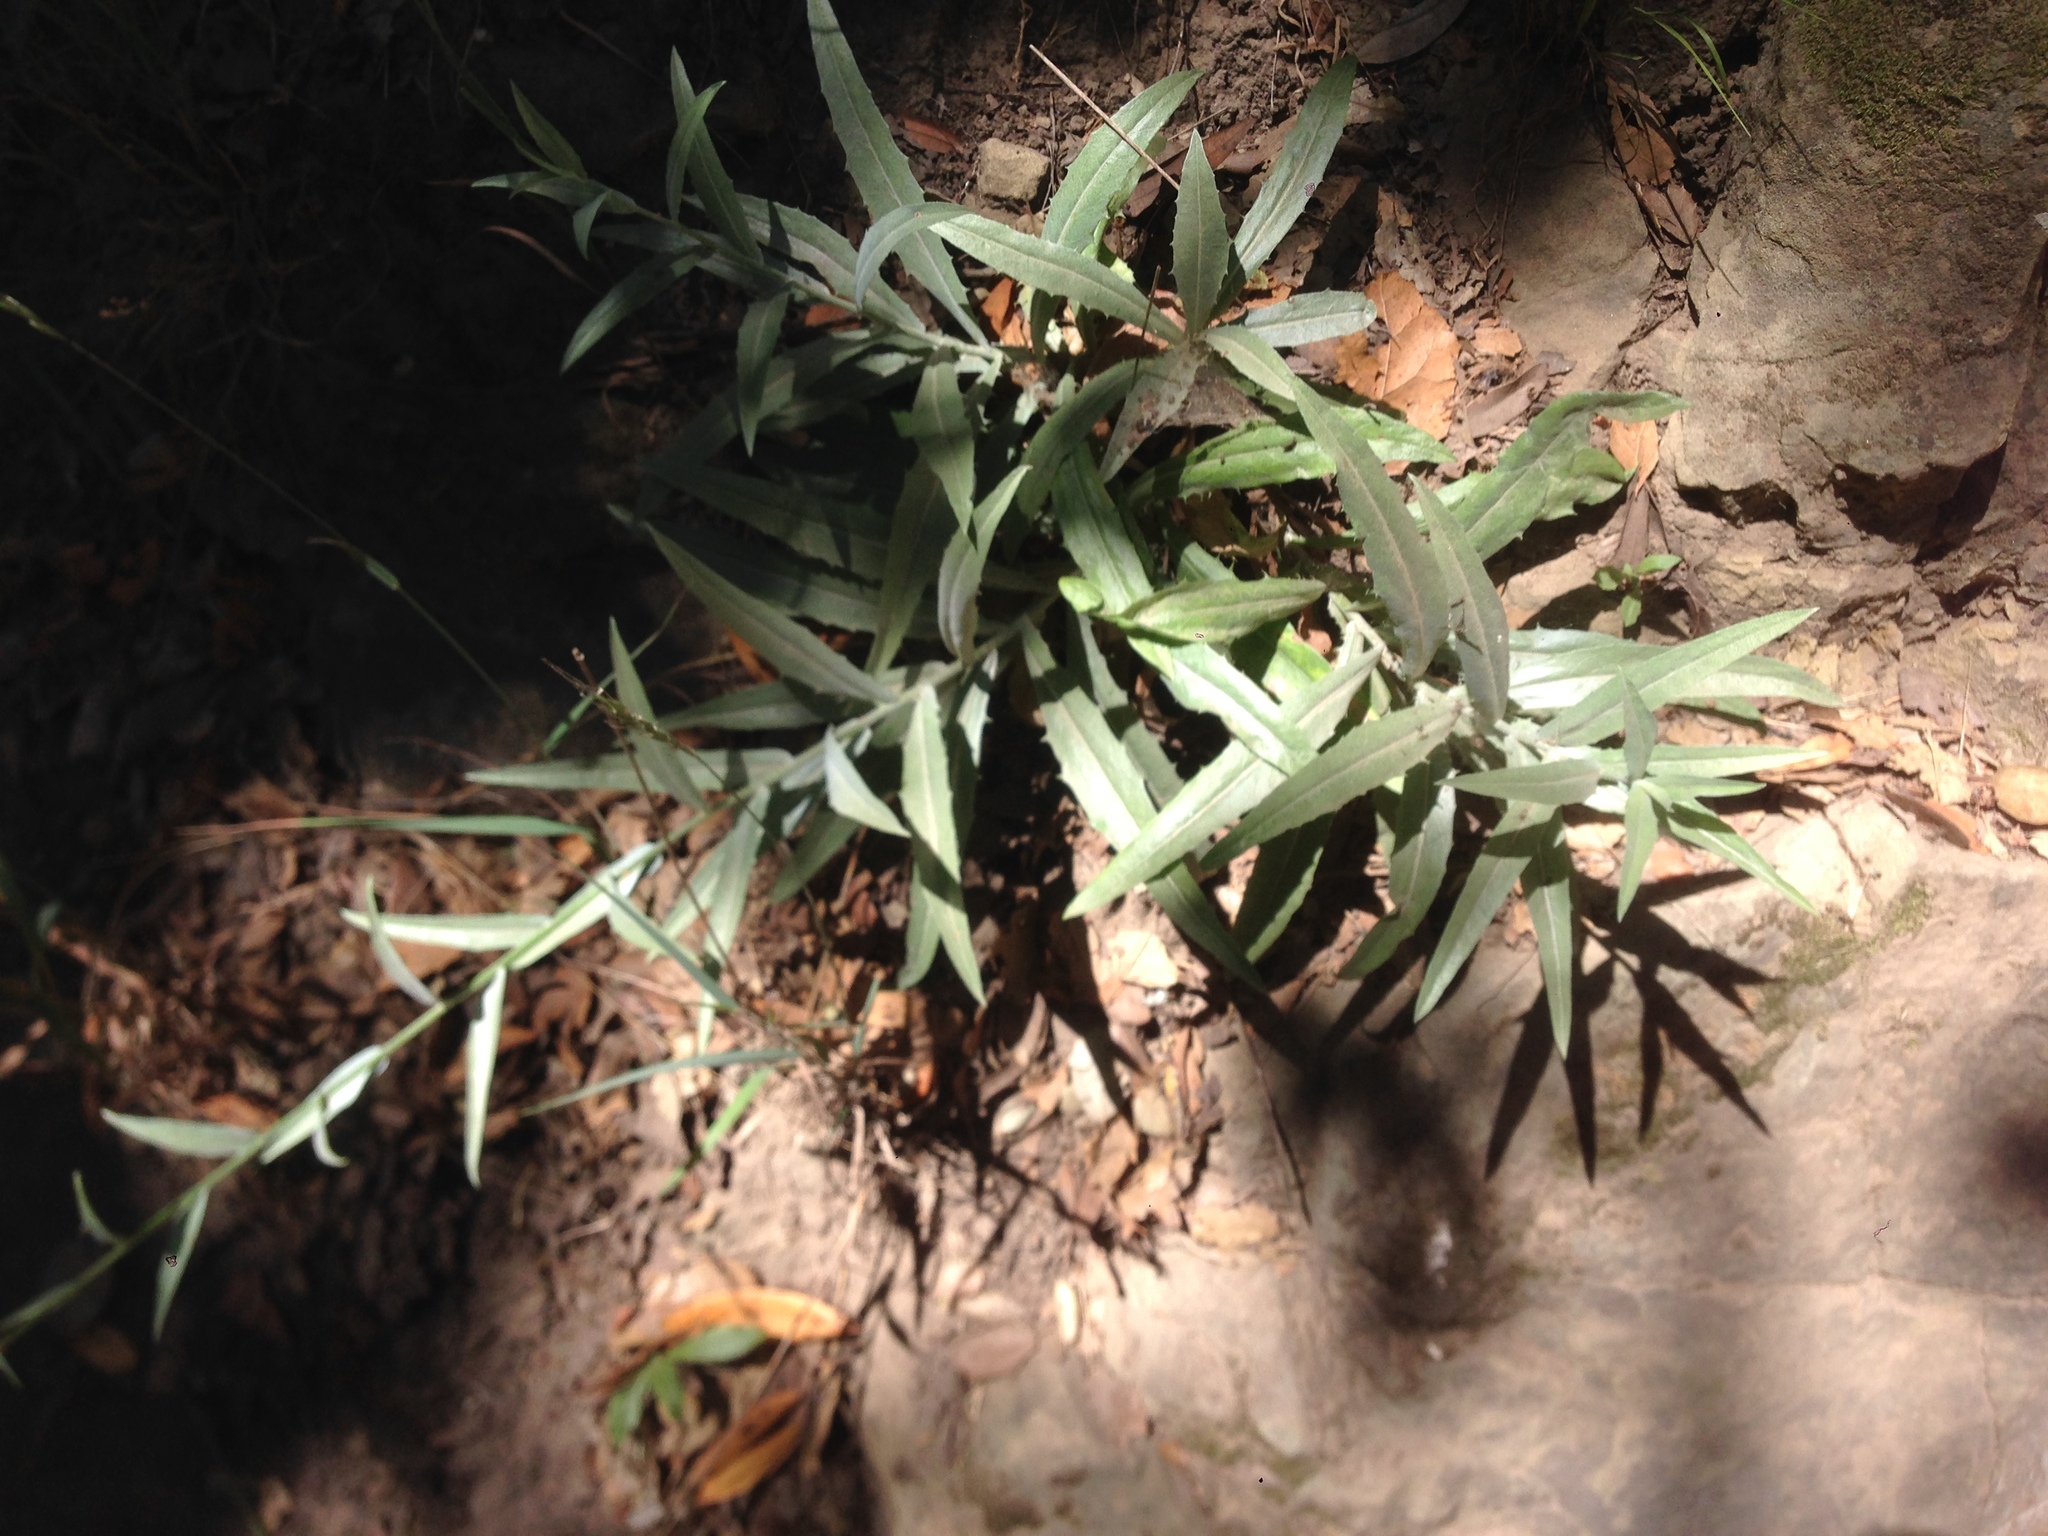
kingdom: Plantae
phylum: Tracheophyta
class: Magnoliopsida
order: Asterales
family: Asteraceae
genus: Stephanomeria
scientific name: Stephanomeria cichoriacea
